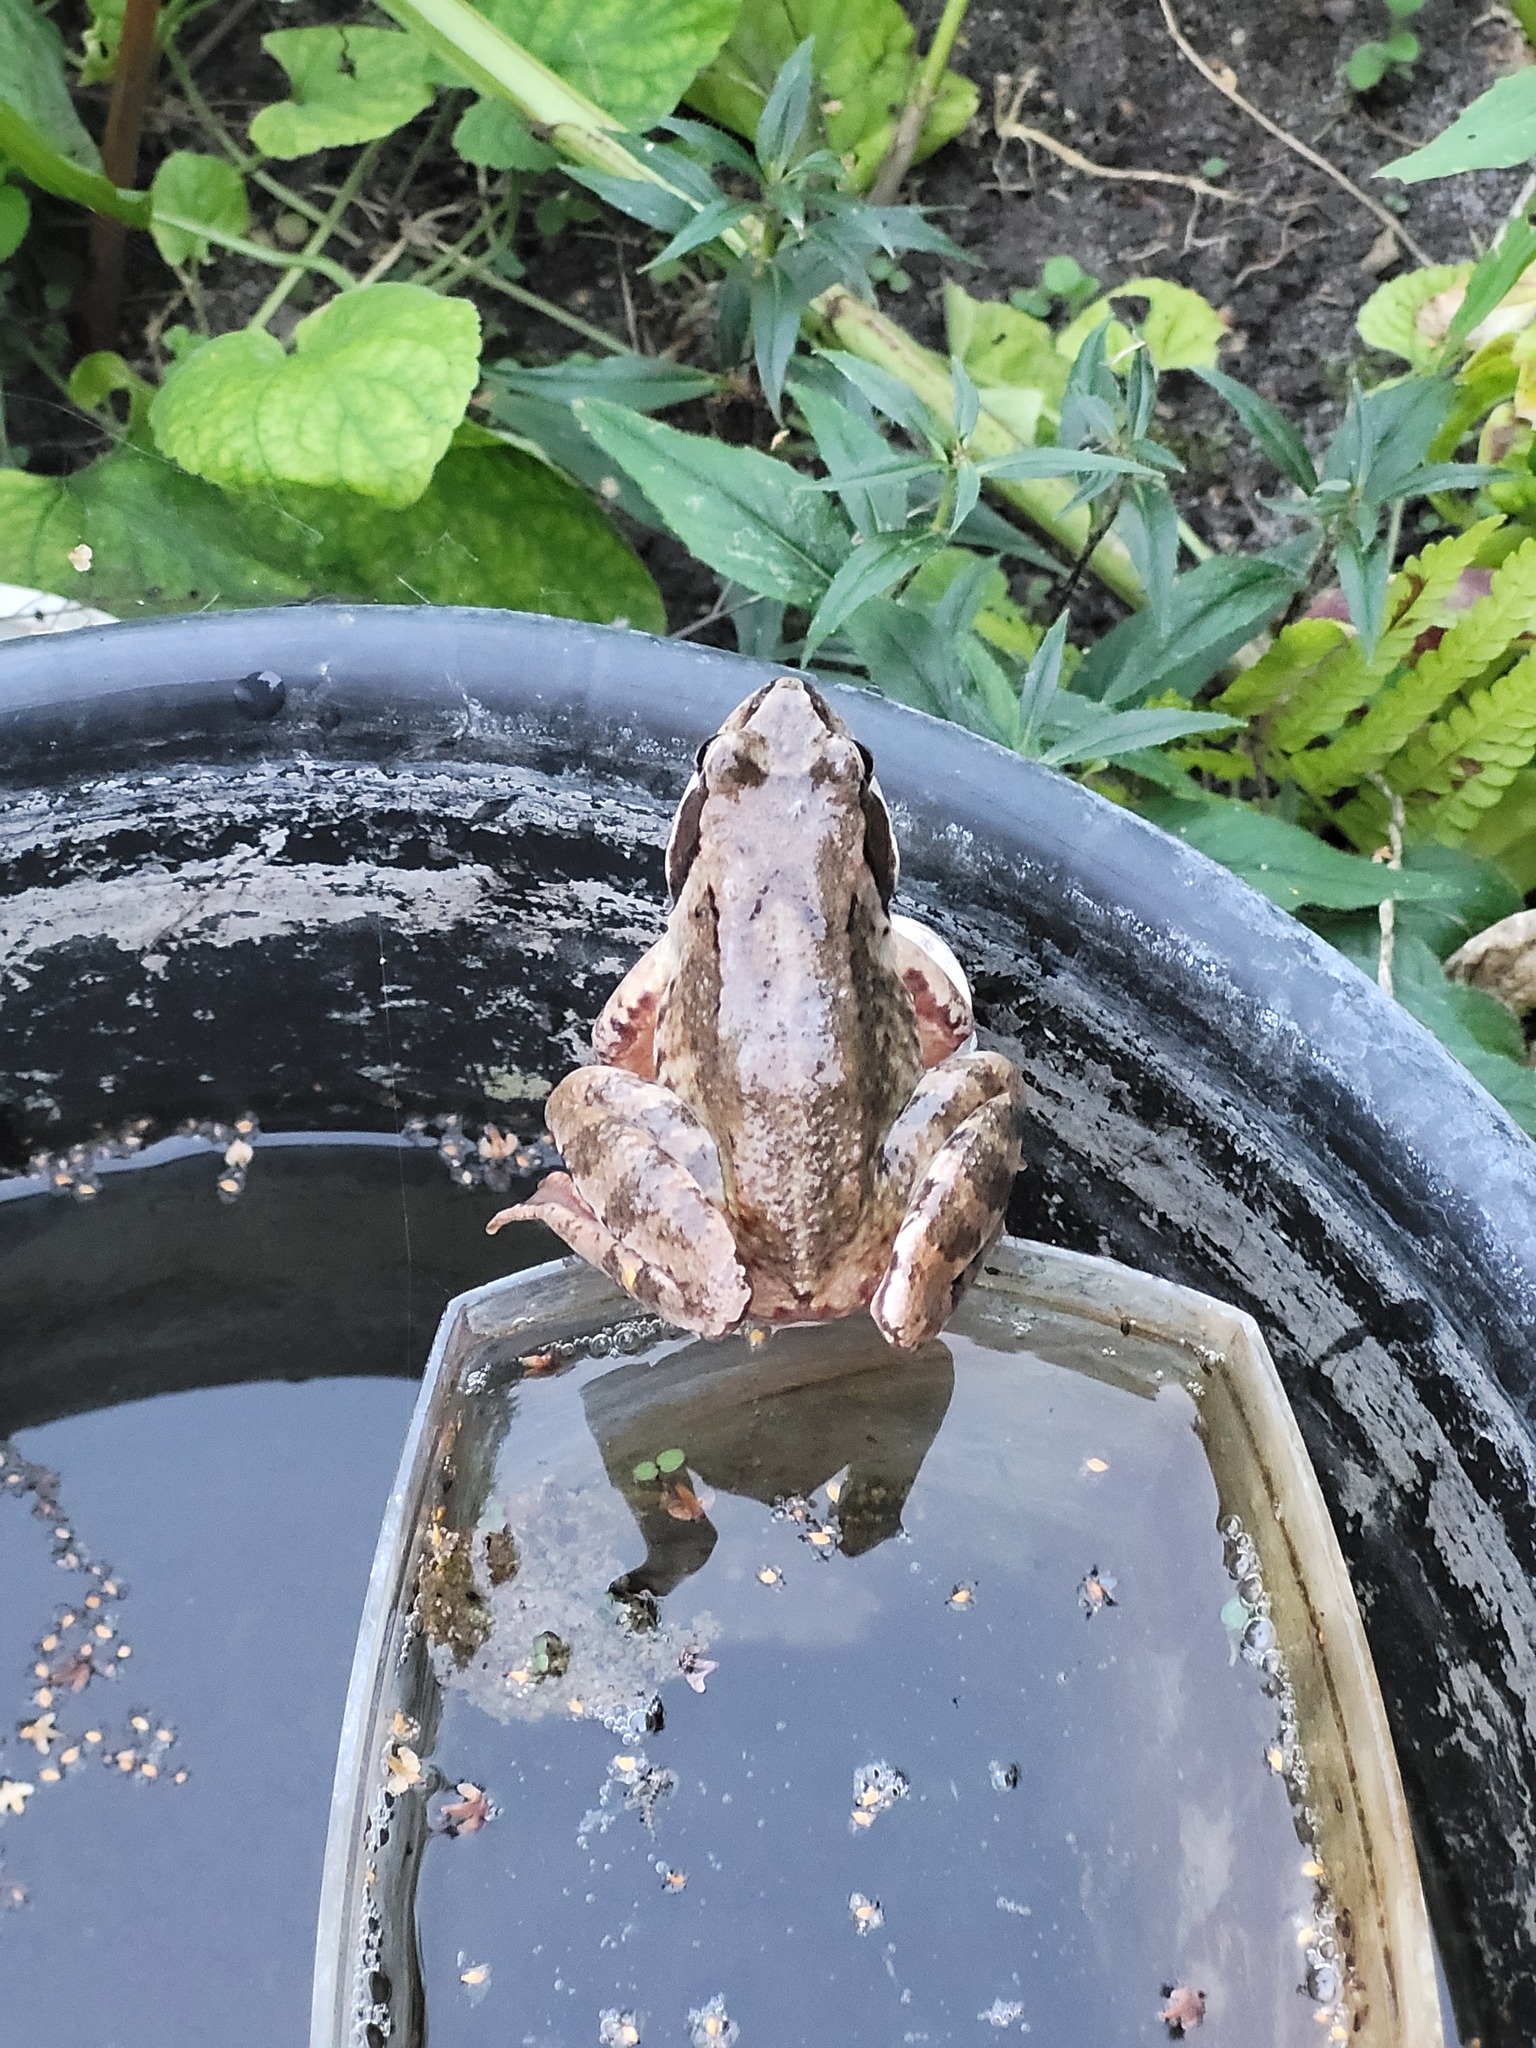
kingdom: Animalia
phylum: Chordata
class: Amphibia
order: Anura
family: Ranidae
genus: Rana
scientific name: Rana temporaria
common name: Common frog
